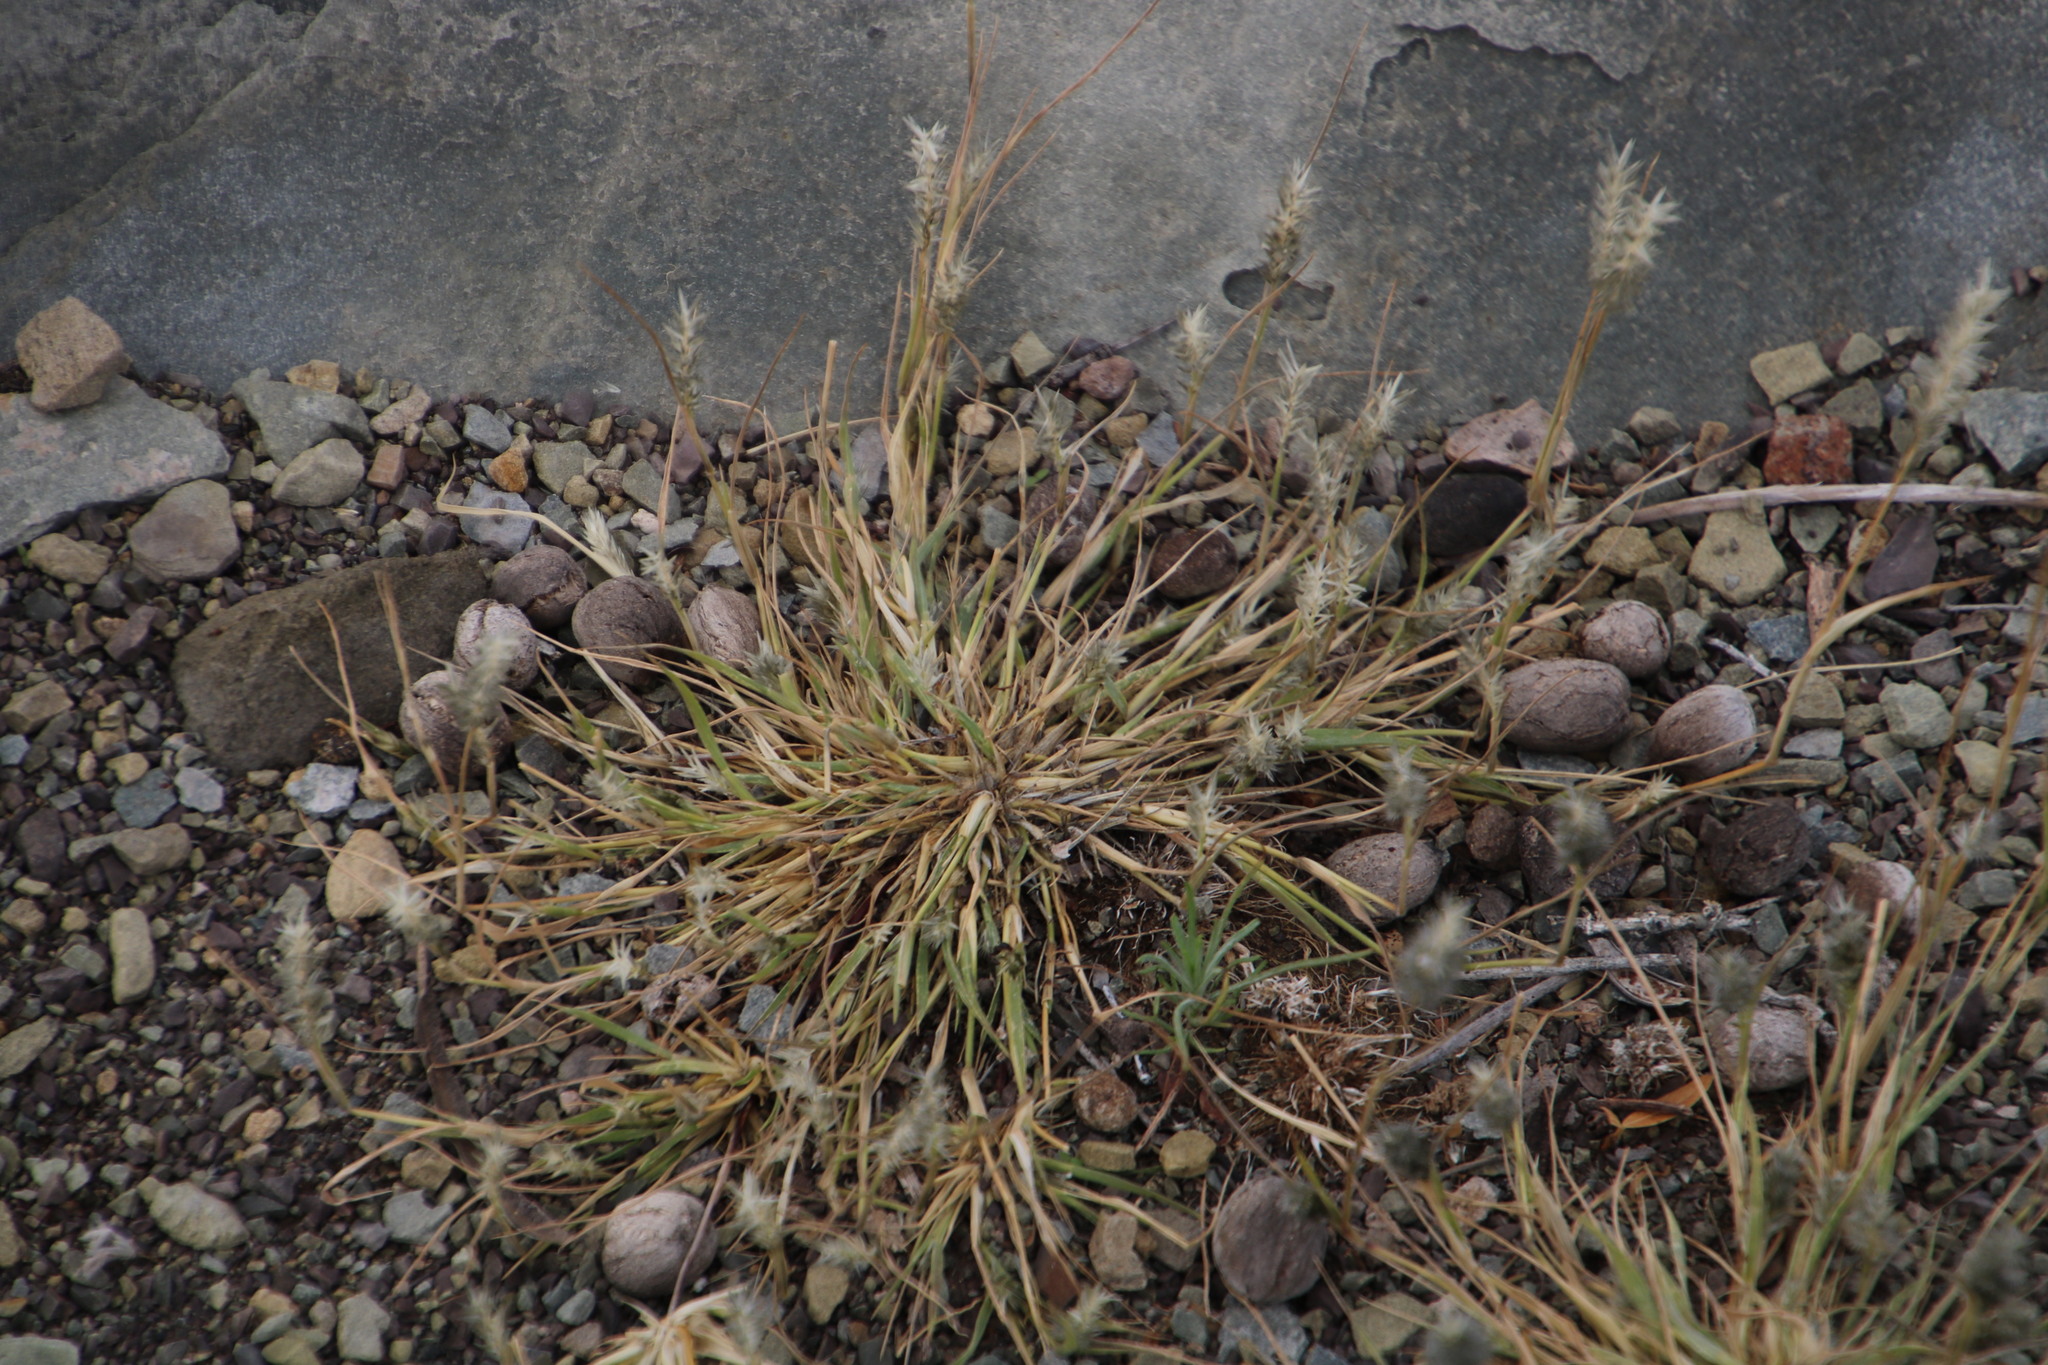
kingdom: Plantae
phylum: Tracheophyta
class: Liliopsida
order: Poales
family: Poaceae
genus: Tragus
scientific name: Tragus racemosus
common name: European bur-grass
